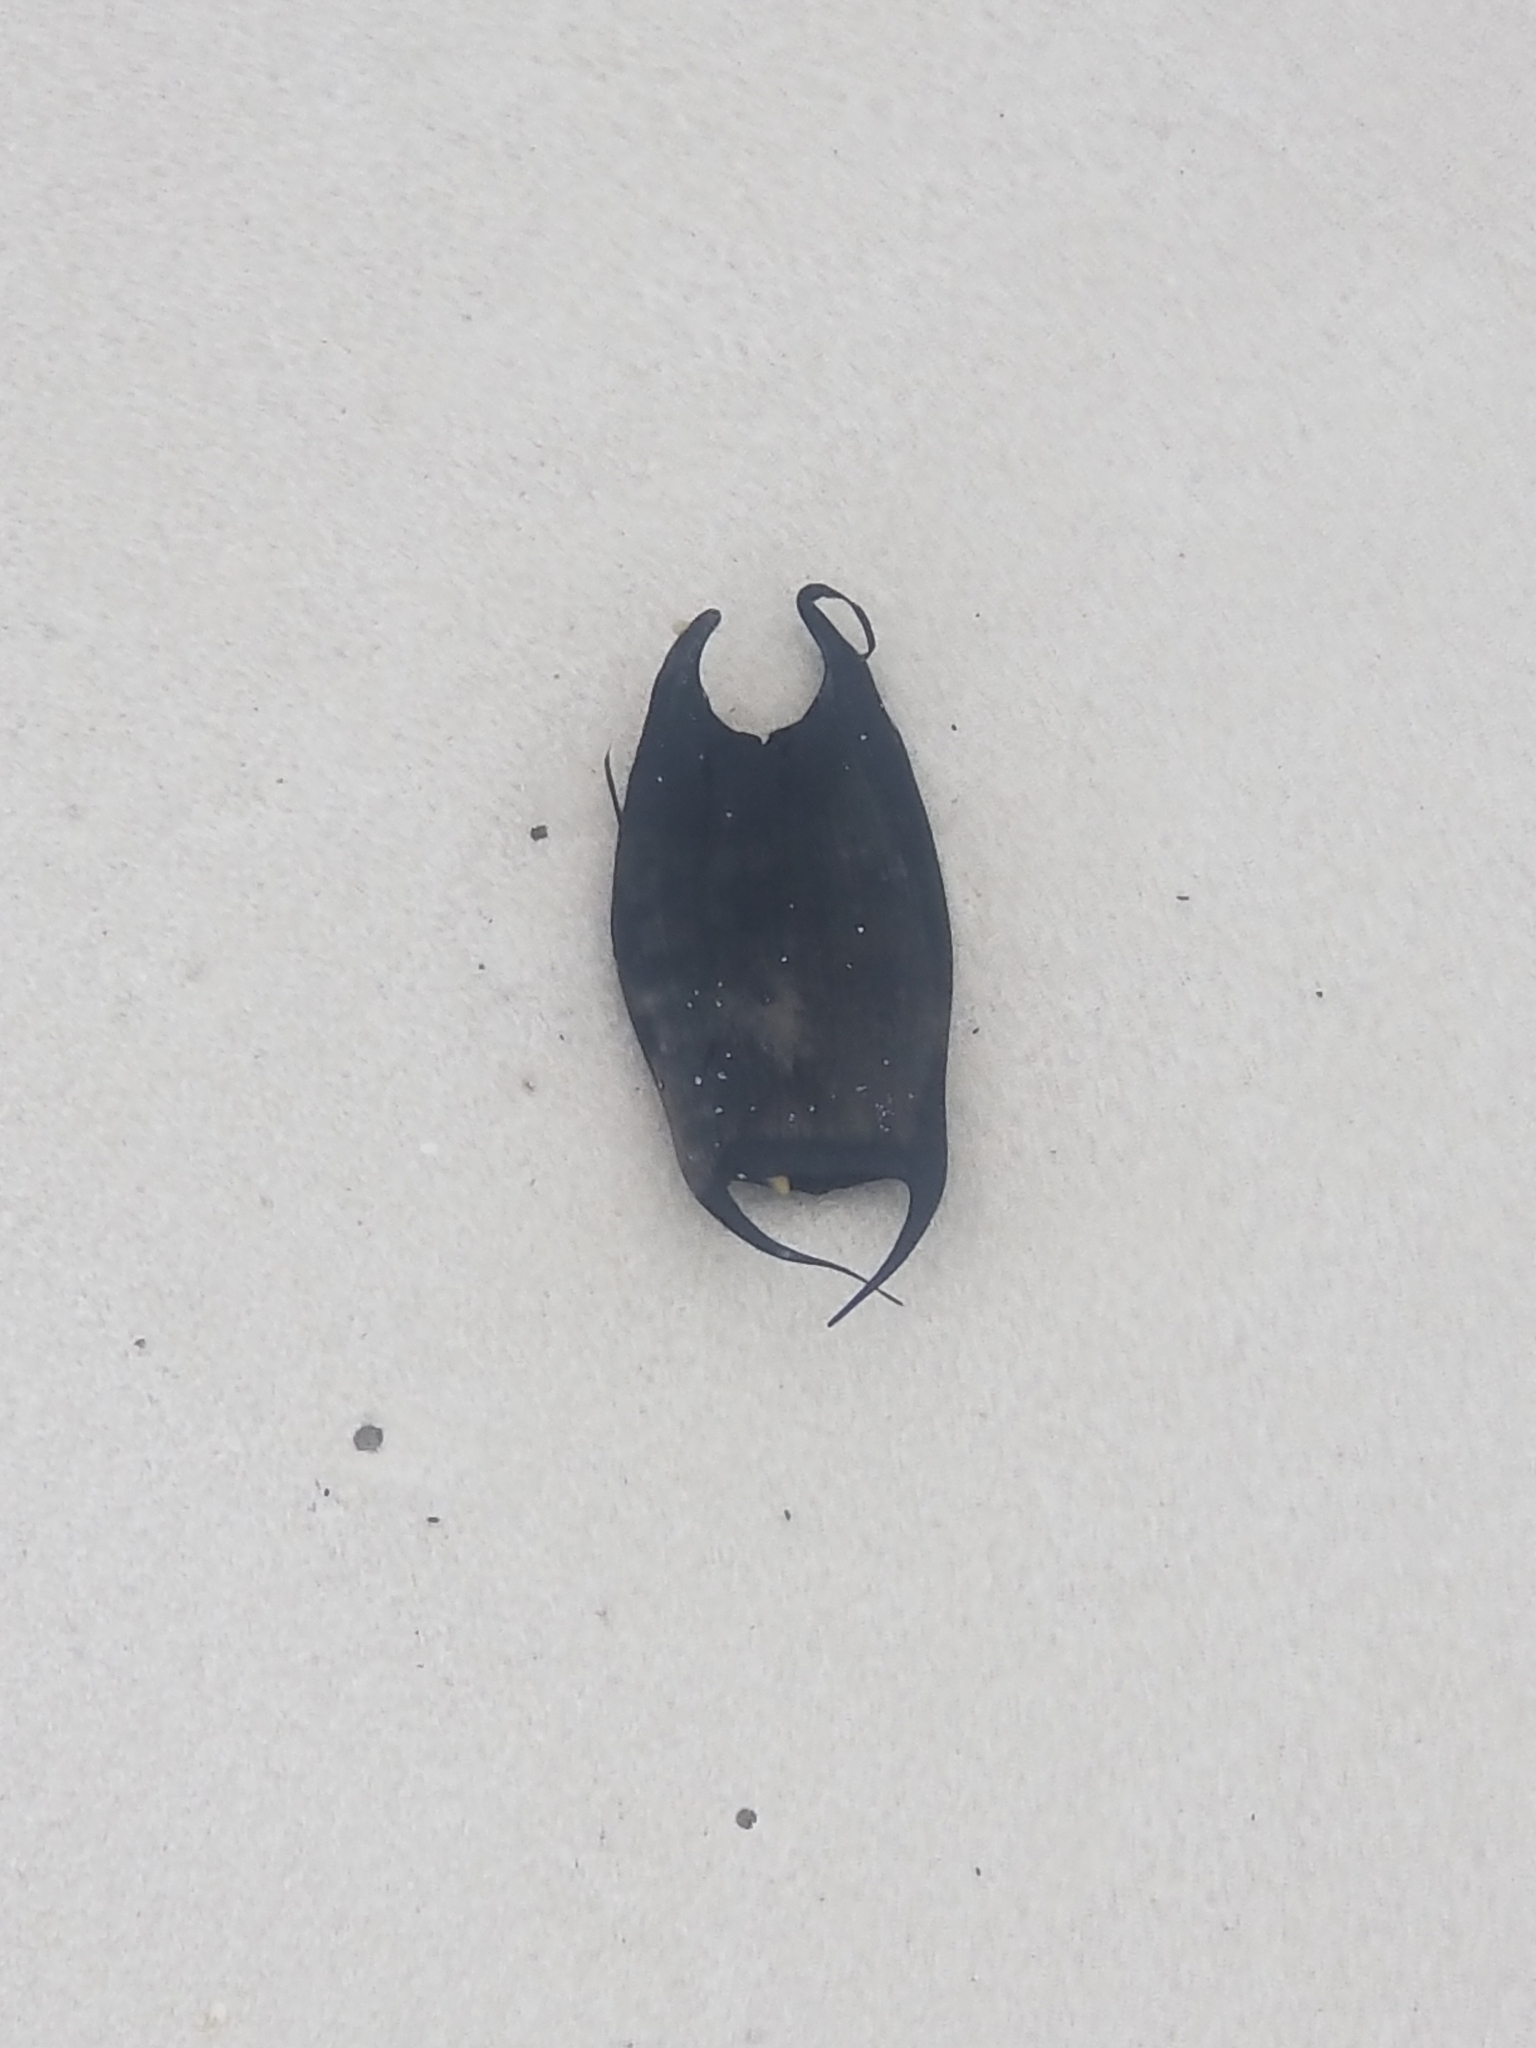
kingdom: Animalia
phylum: Chordata
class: Elasmobranchii
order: Rajiformes
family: Rajidae
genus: Raja
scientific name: Raja eglanteria
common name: Clearnose skate
